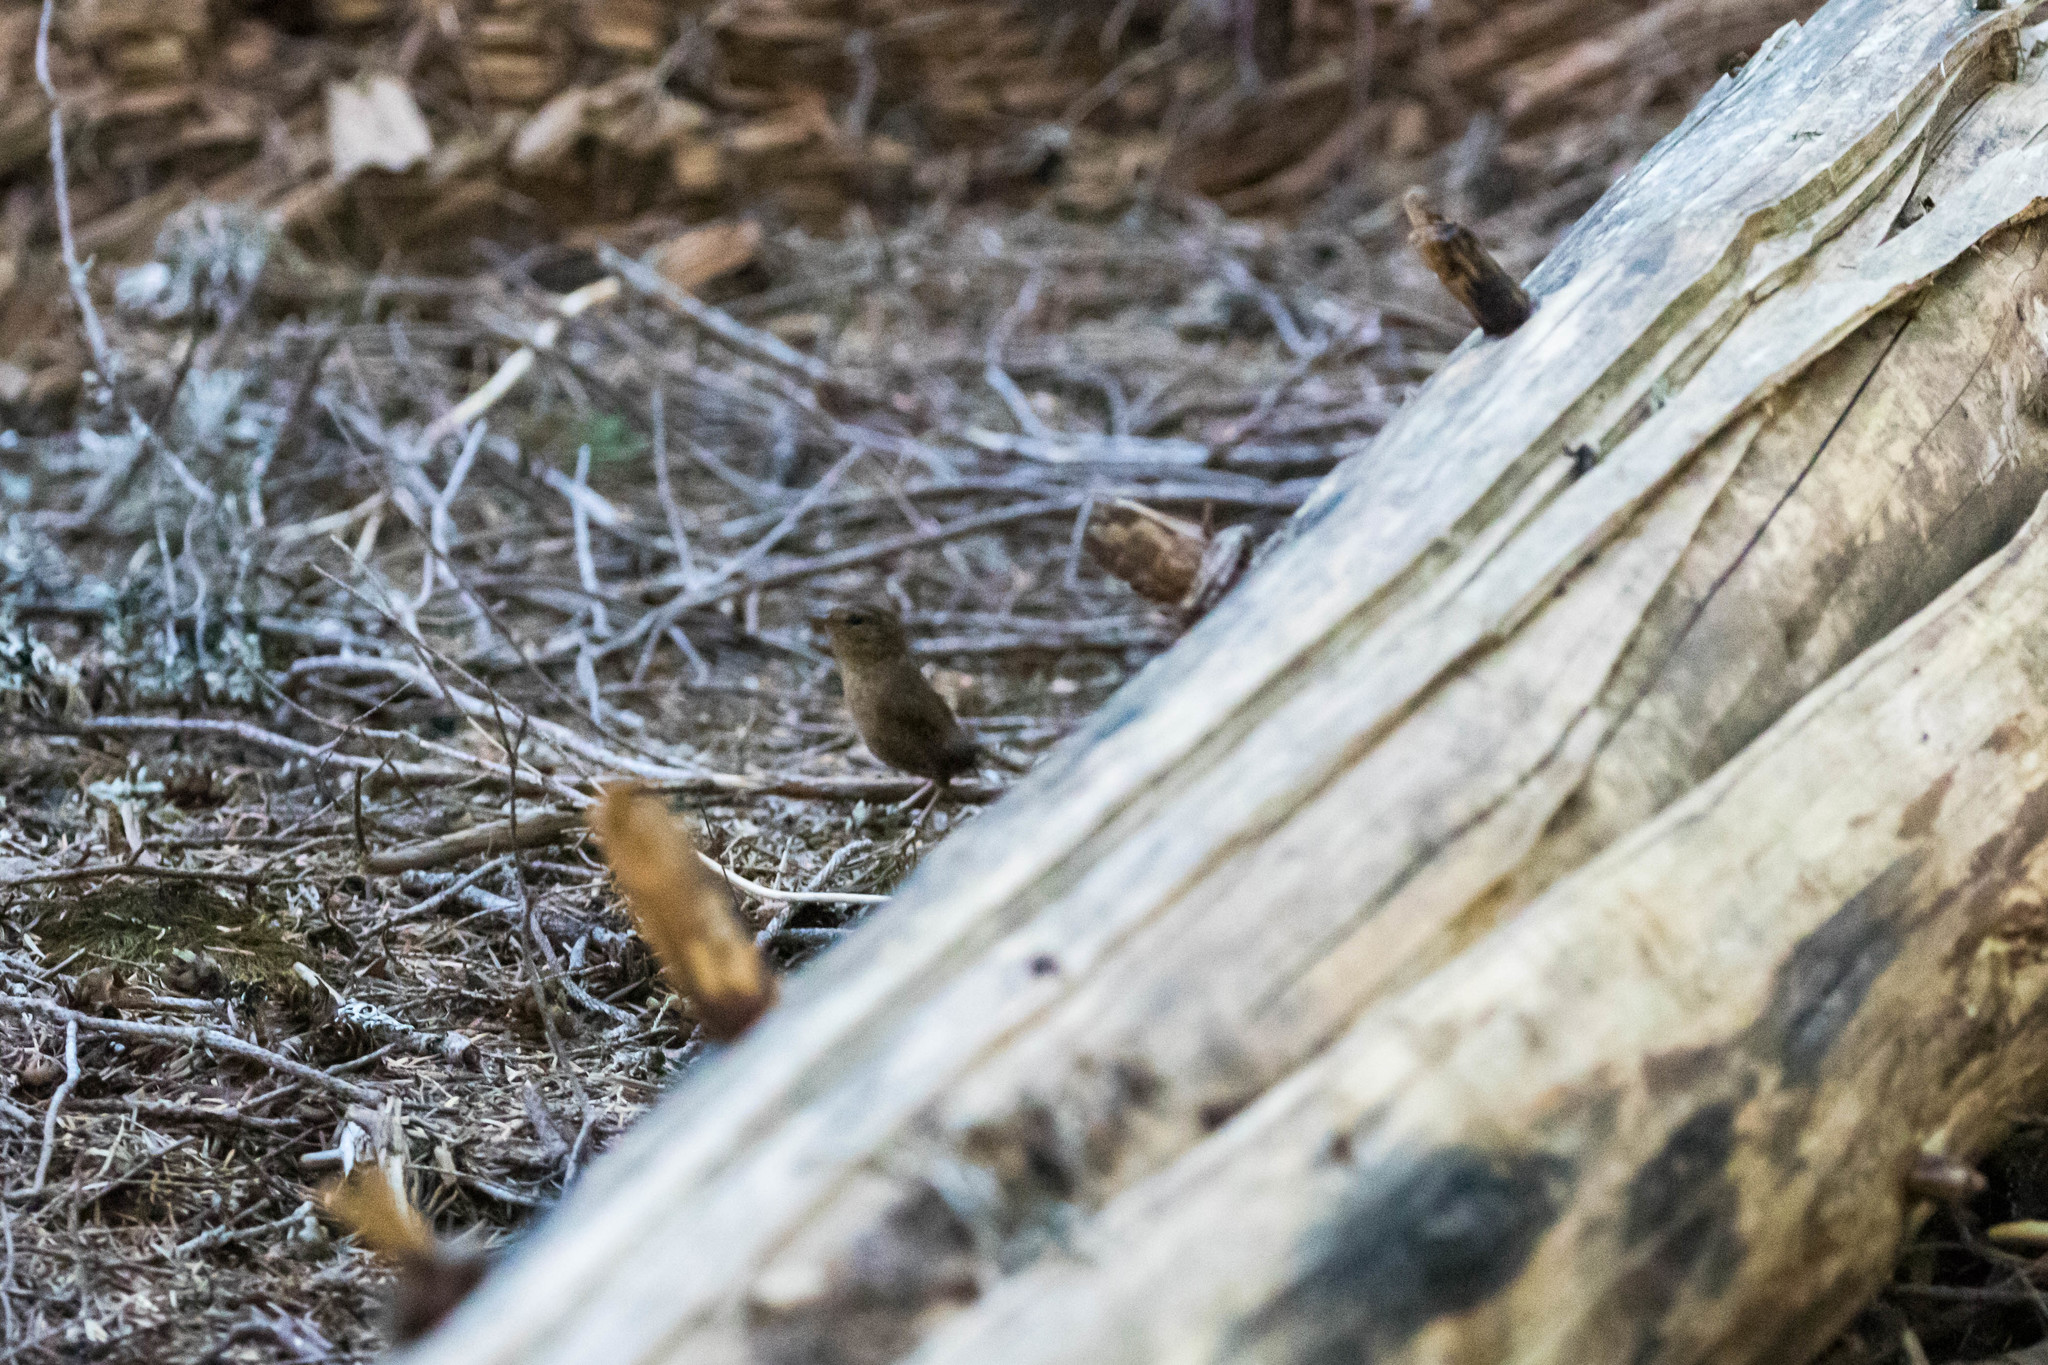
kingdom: Animalia
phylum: Chordata
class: Aves
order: Passeriformes
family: Troglodytidae
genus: Troglodytes
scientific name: Troglodytes pacificus
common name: Pacific wren
